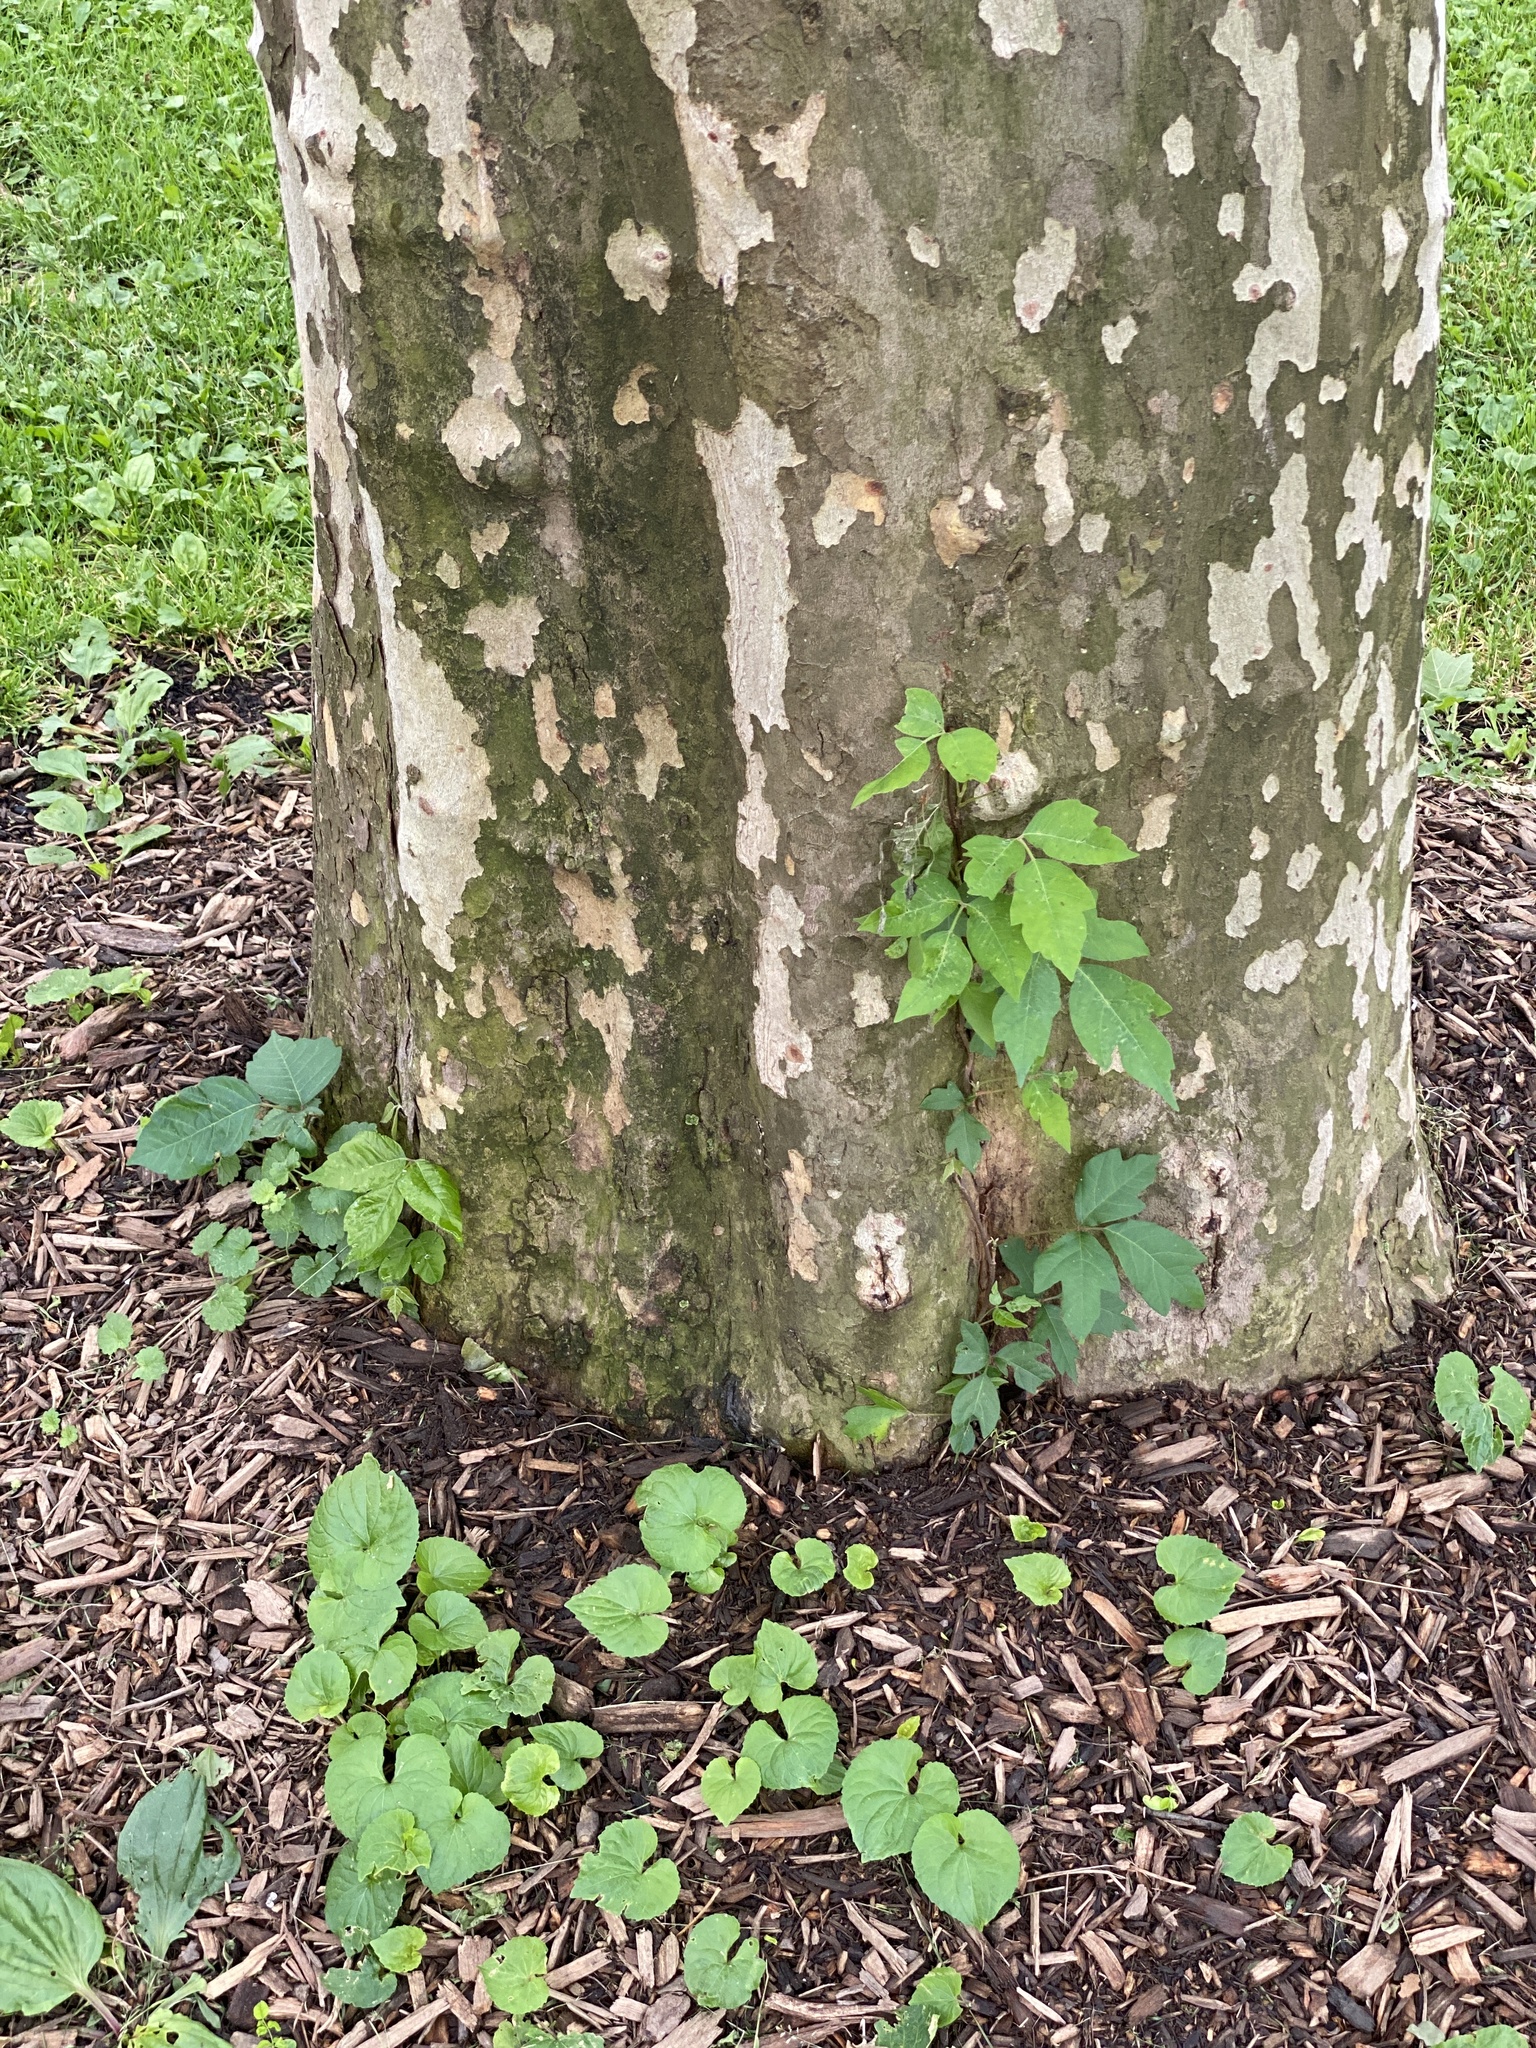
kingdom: Plantae
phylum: Tracheophyta
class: Magnoliopsida
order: Sapindales
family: Anacardiaceae
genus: Toxicodendron
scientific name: Toxicodendron radicans
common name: Poison ivy
